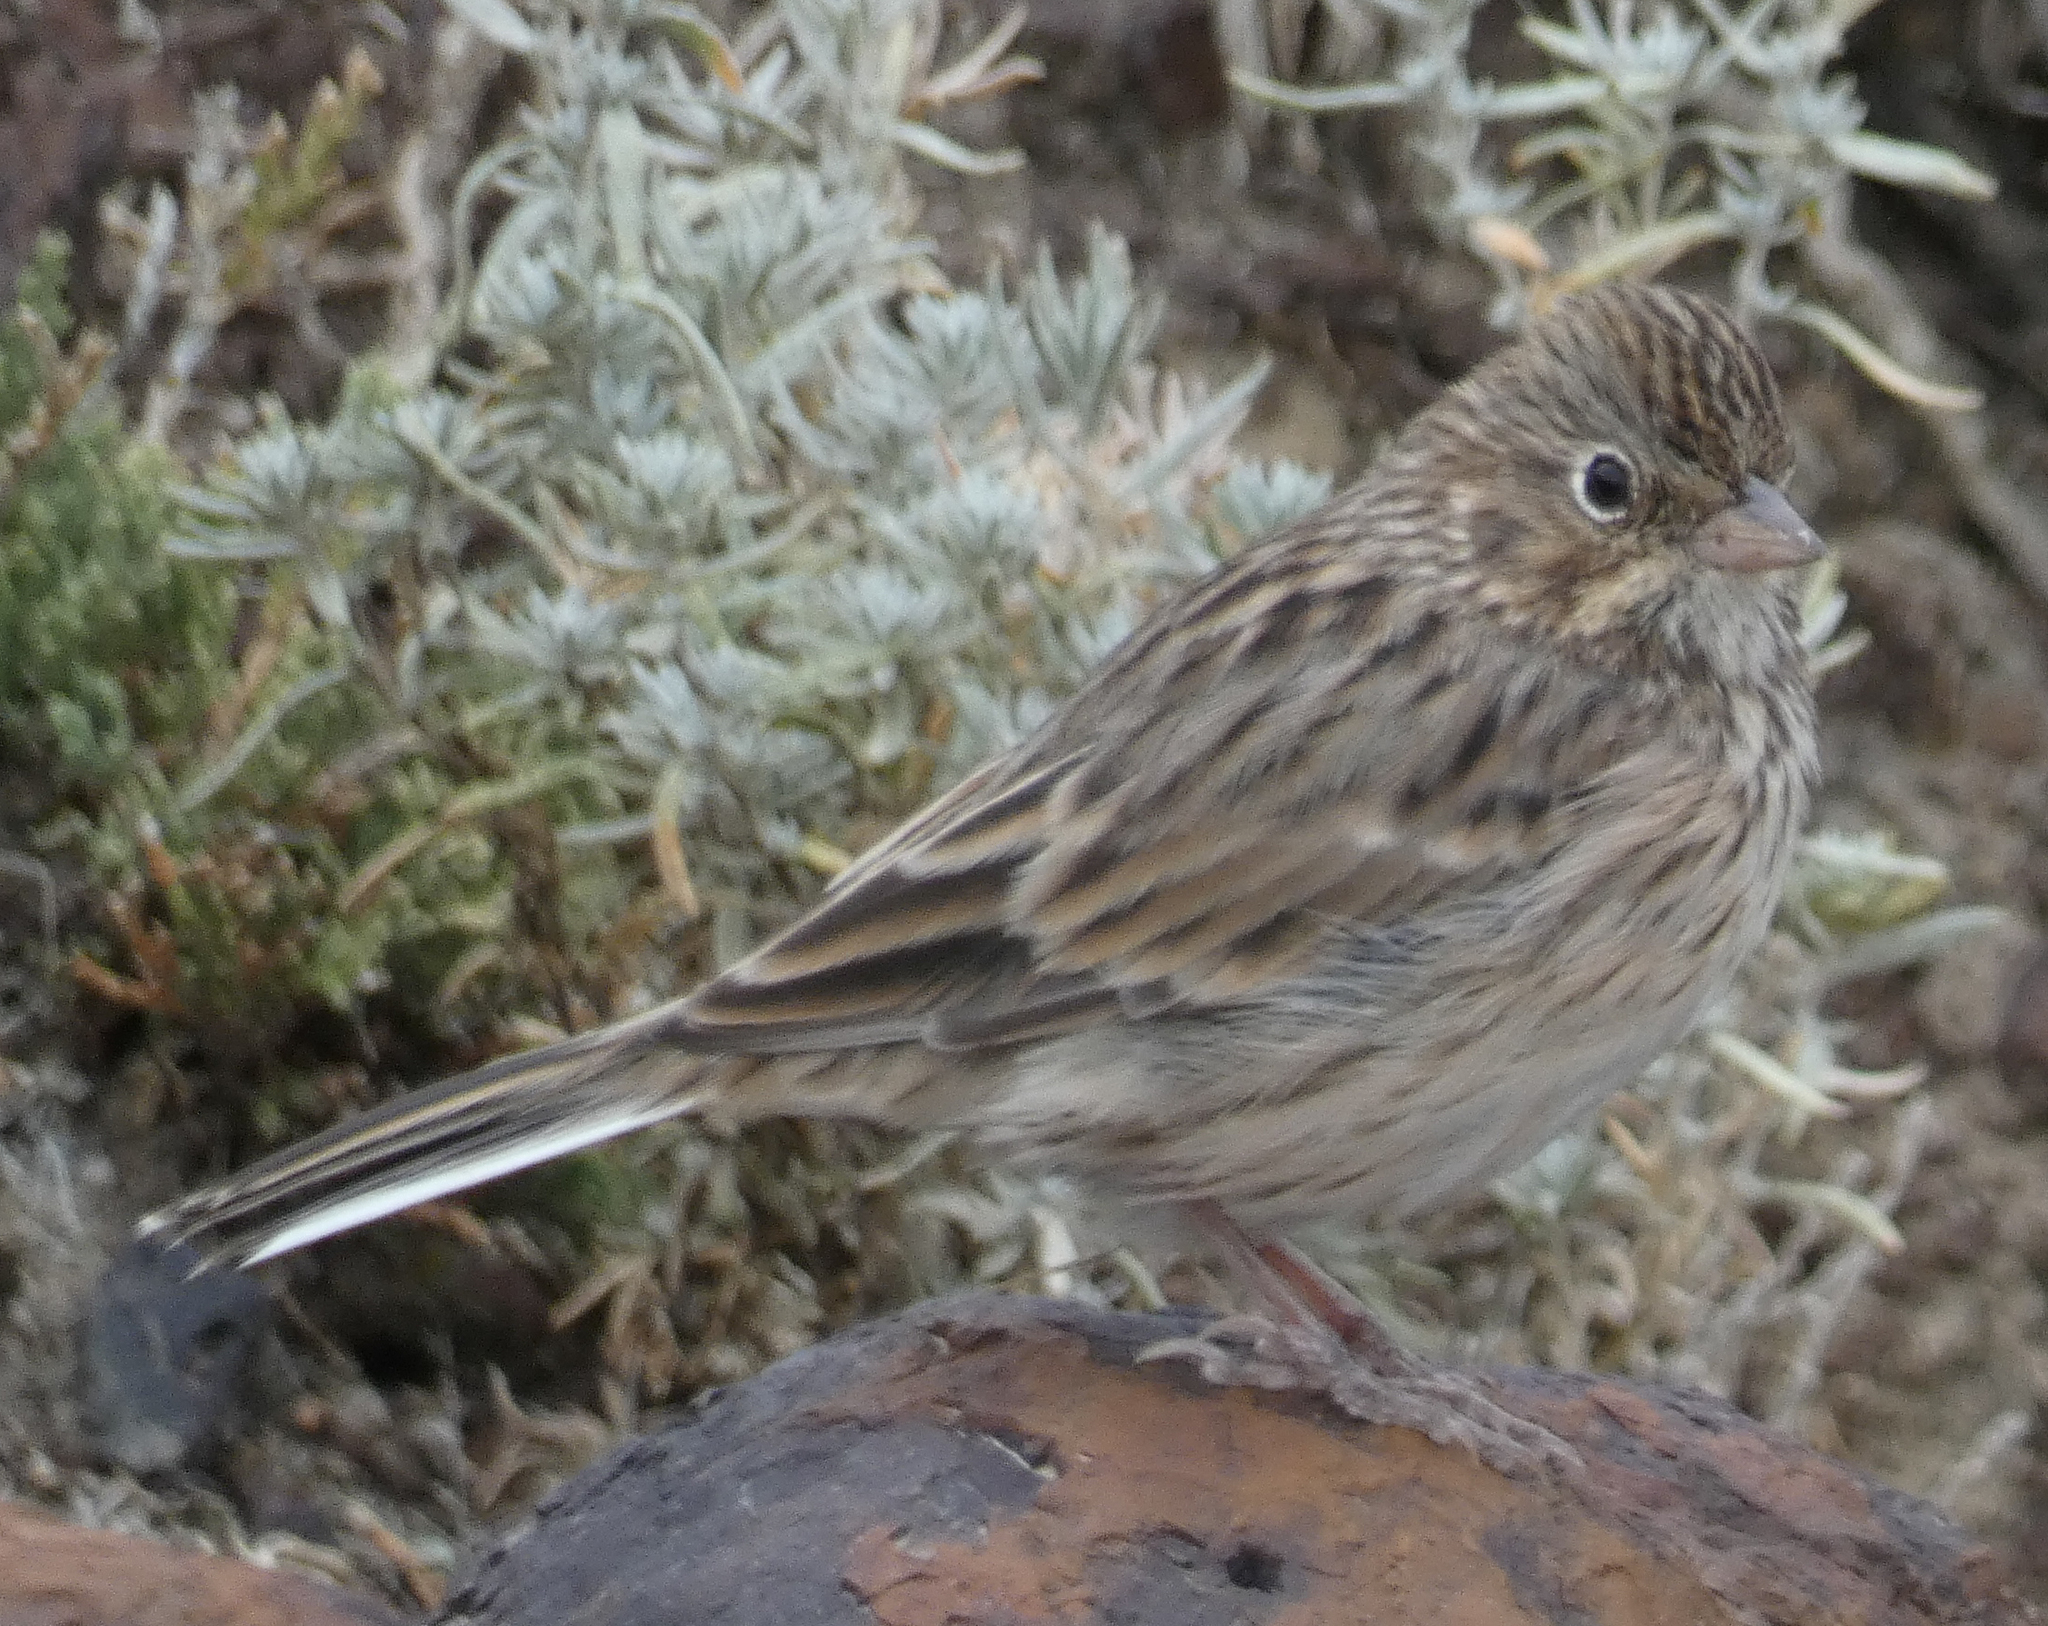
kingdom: Animalia
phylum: Chordata
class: Aves
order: Passeriformes
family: Passerellidae
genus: Pooecetes
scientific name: Pooecetes gramineus
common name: Vesper sparrow
